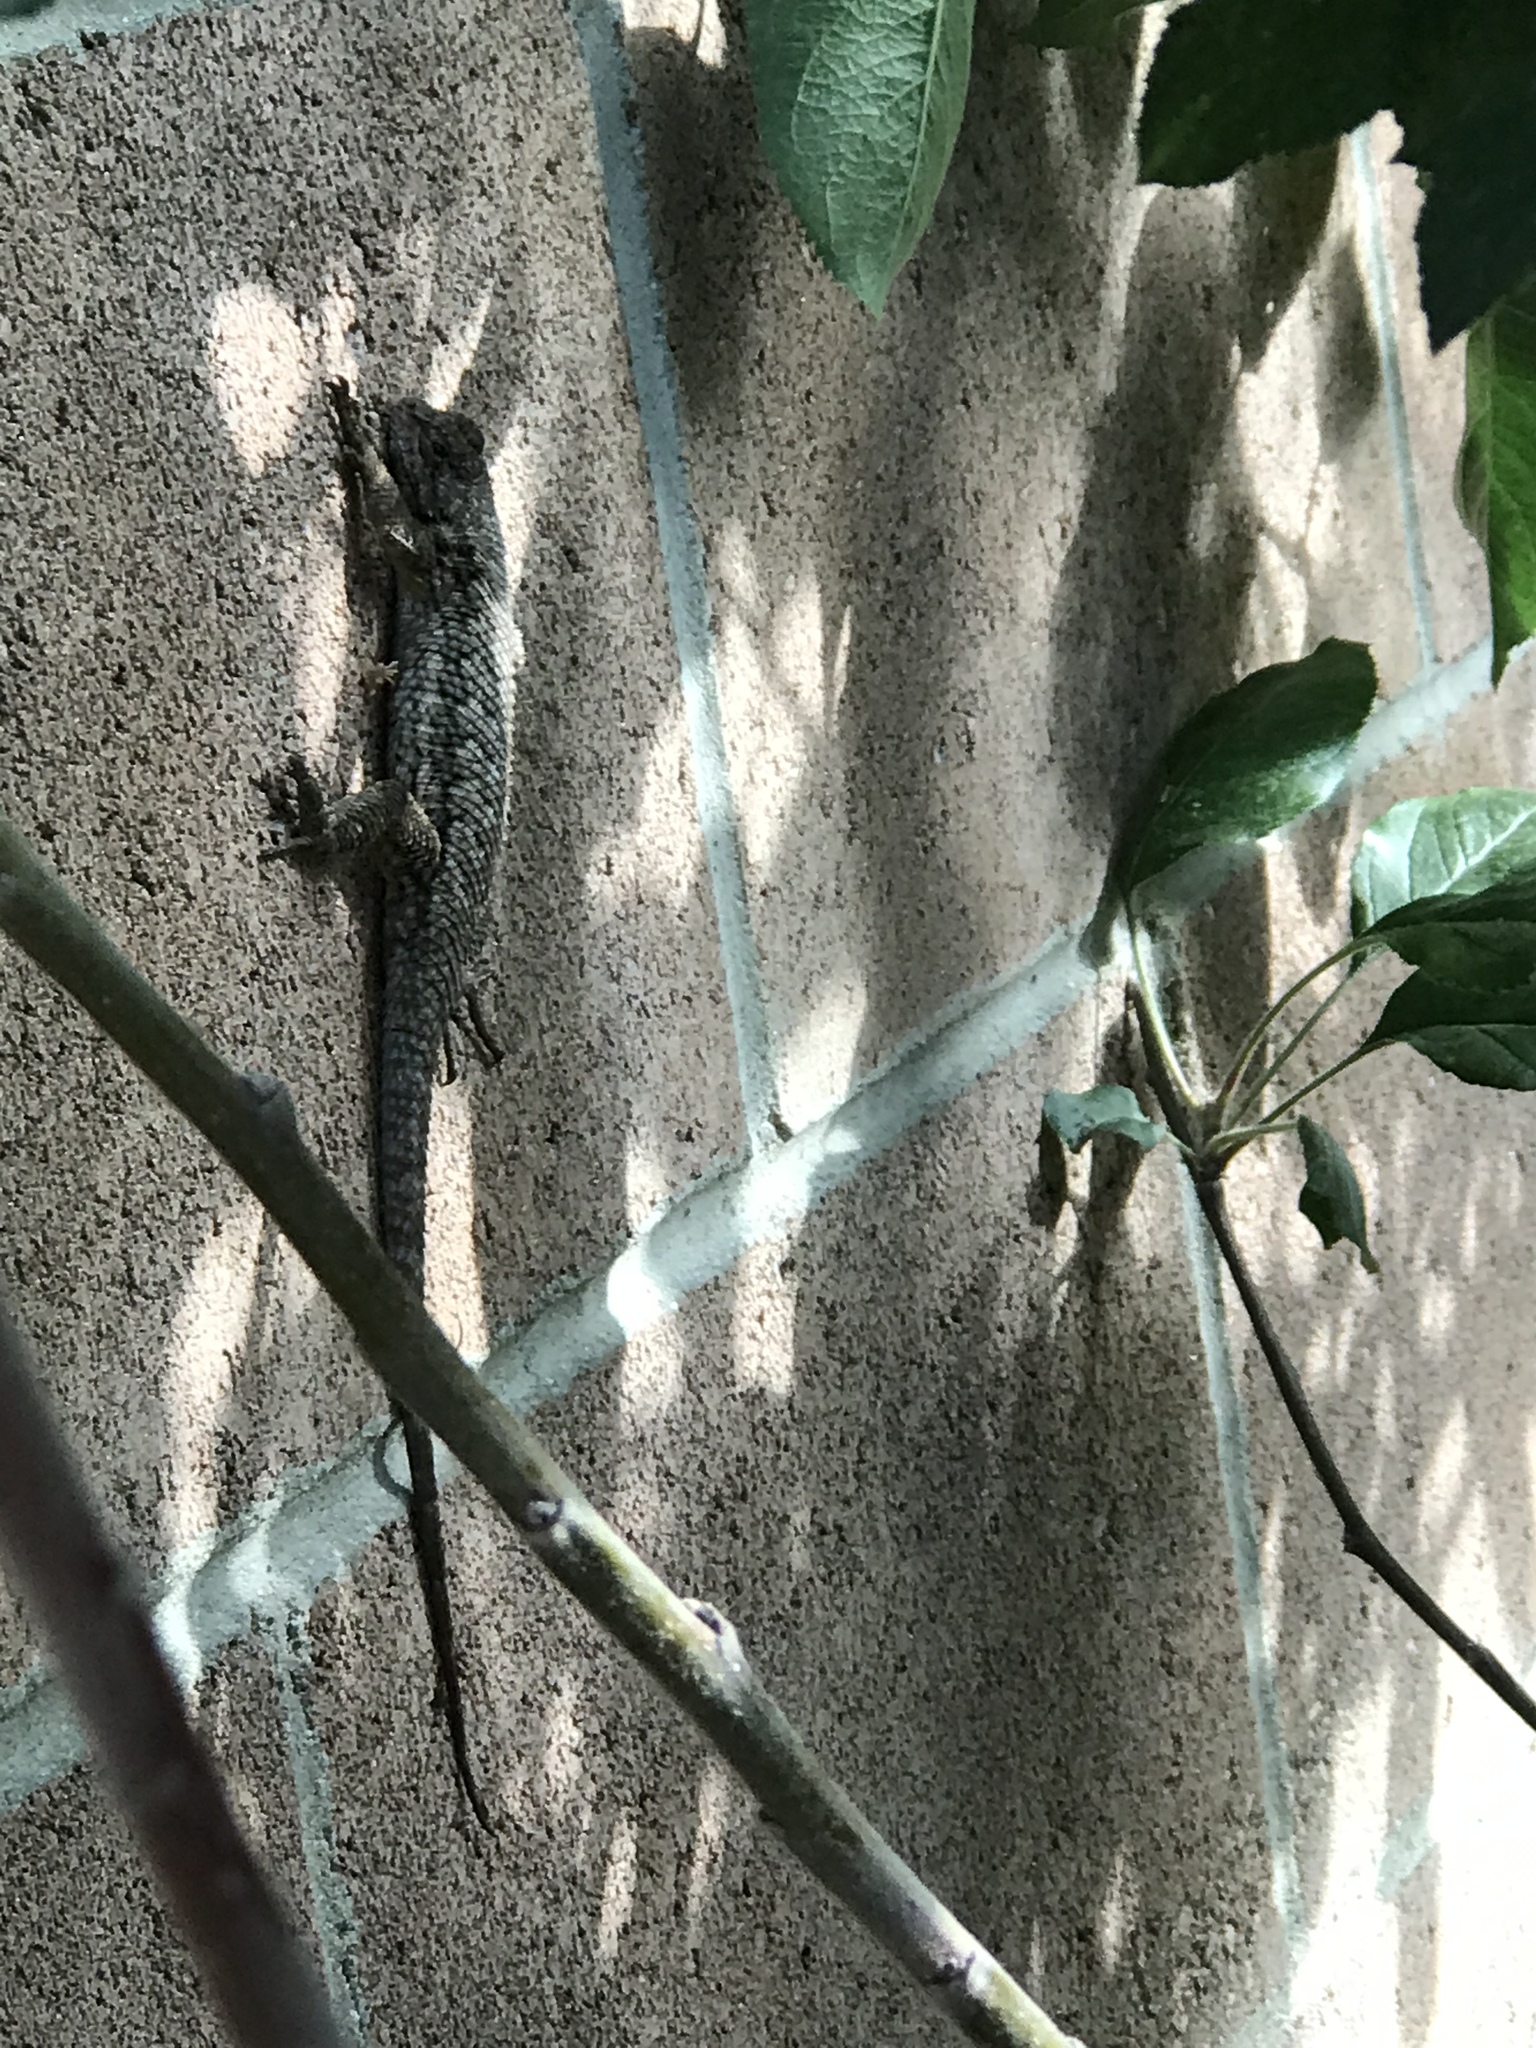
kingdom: Animalia
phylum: Chordata
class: Squamata
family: Phrynosomatidae
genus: Sceloporus
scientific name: Sceloporus occidentalis
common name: Western fence lizard
